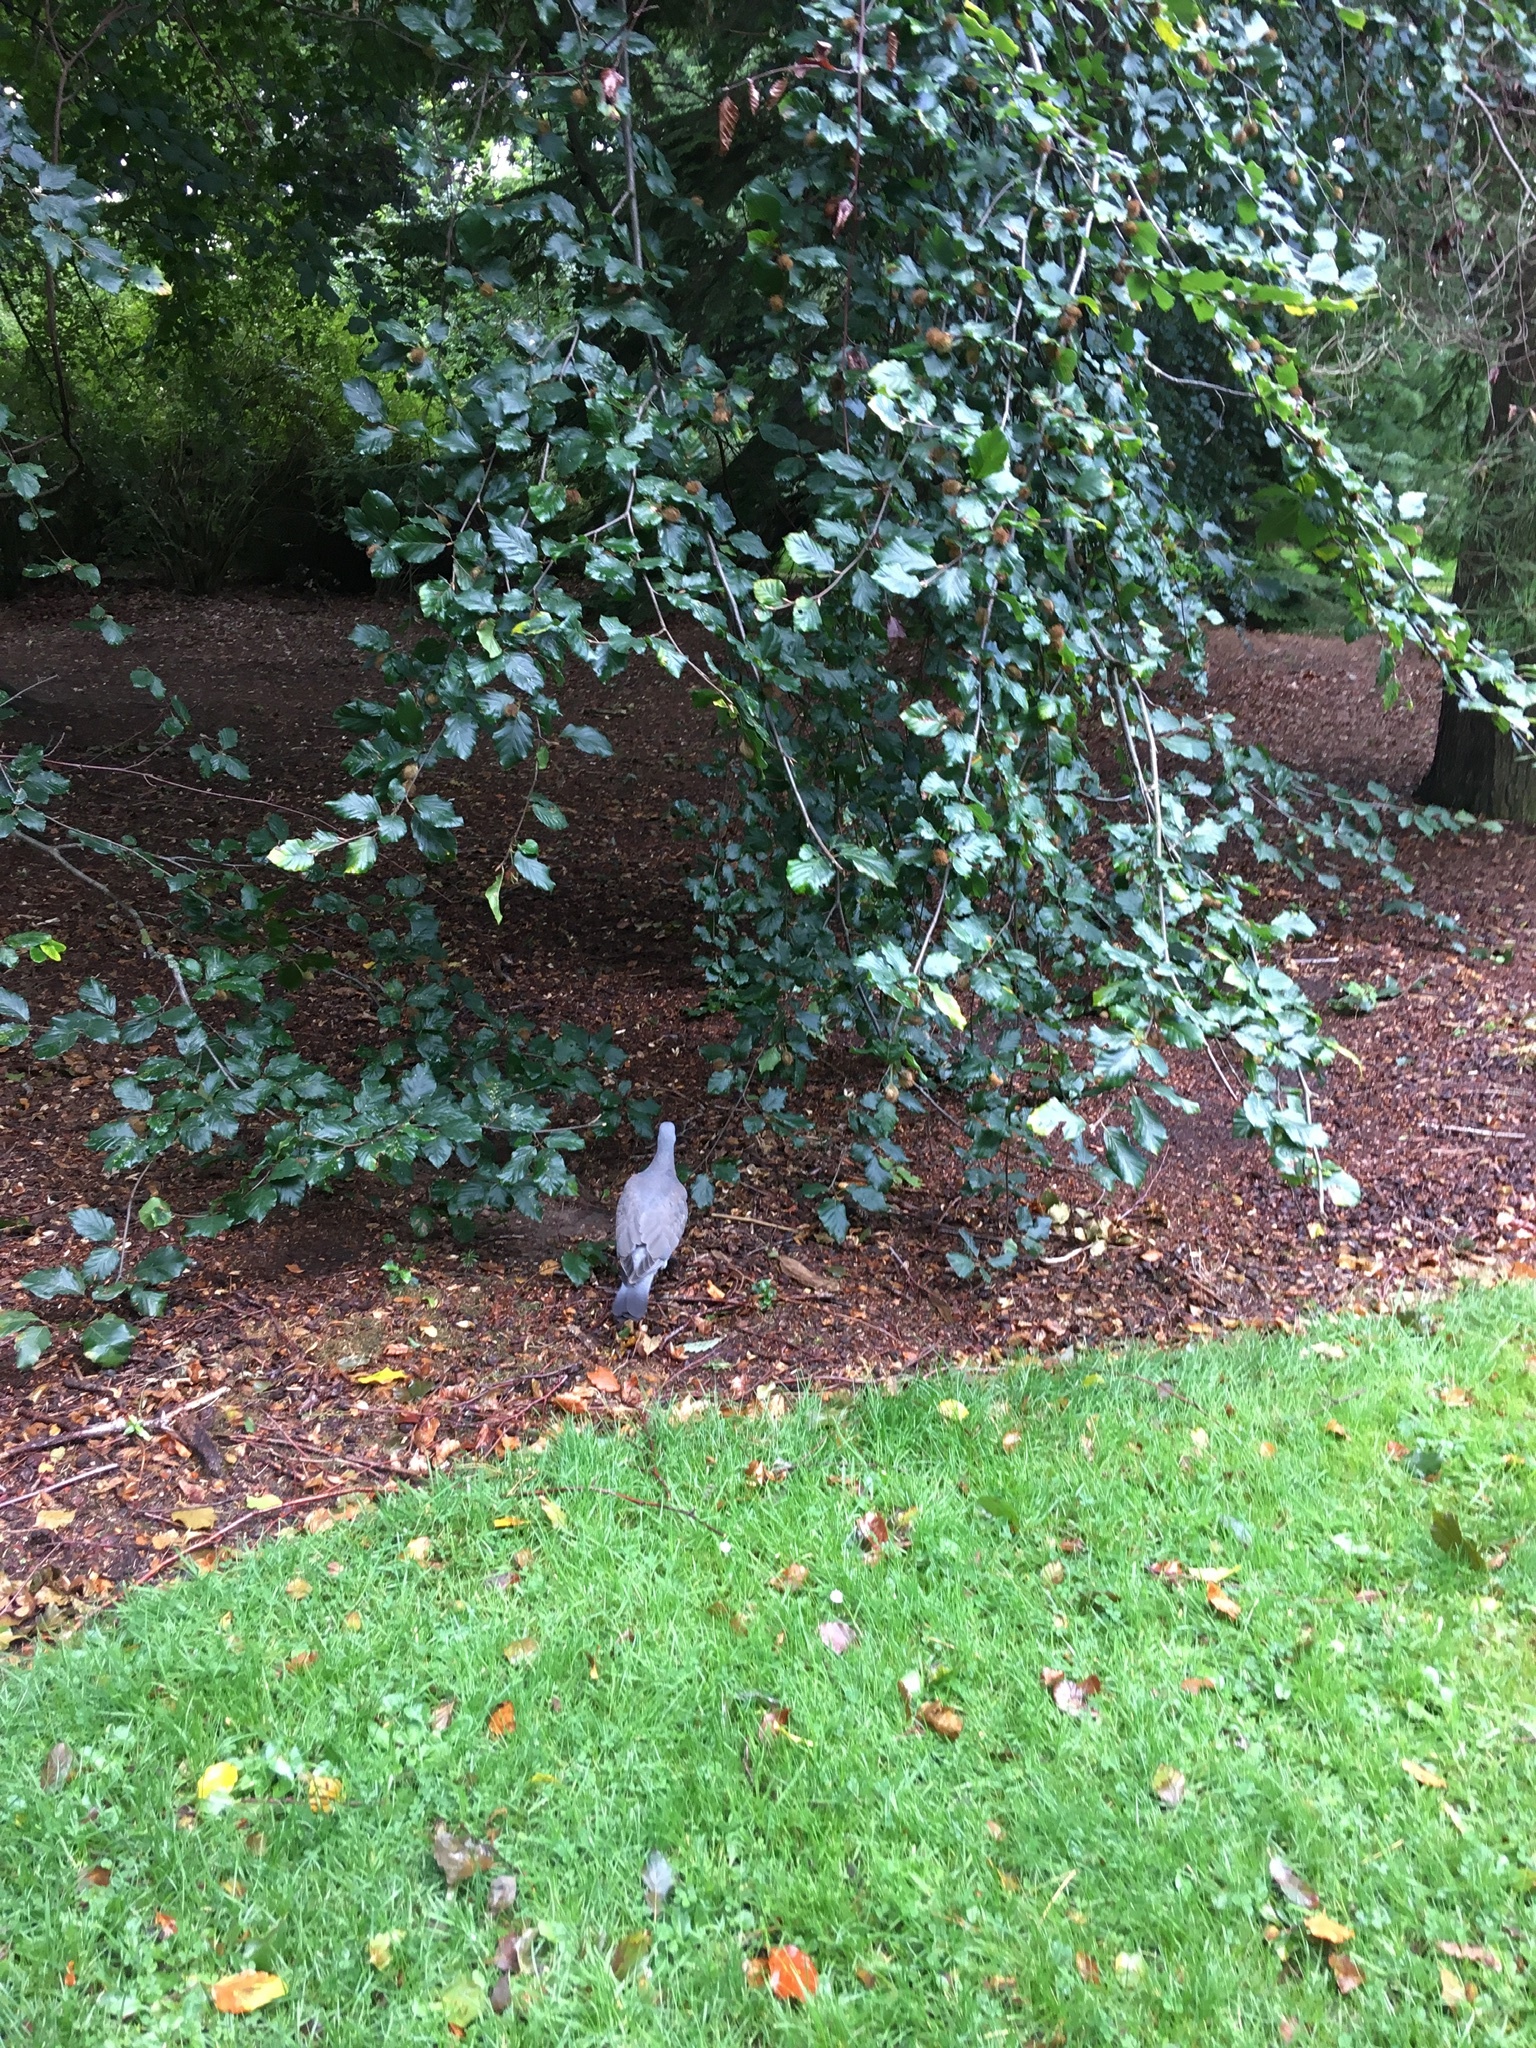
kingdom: Animalia
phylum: Chordata
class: Aves
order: Columbiformes
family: Columbidae
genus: Columba
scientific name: Columba palumbus
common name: Common wood pigeon
